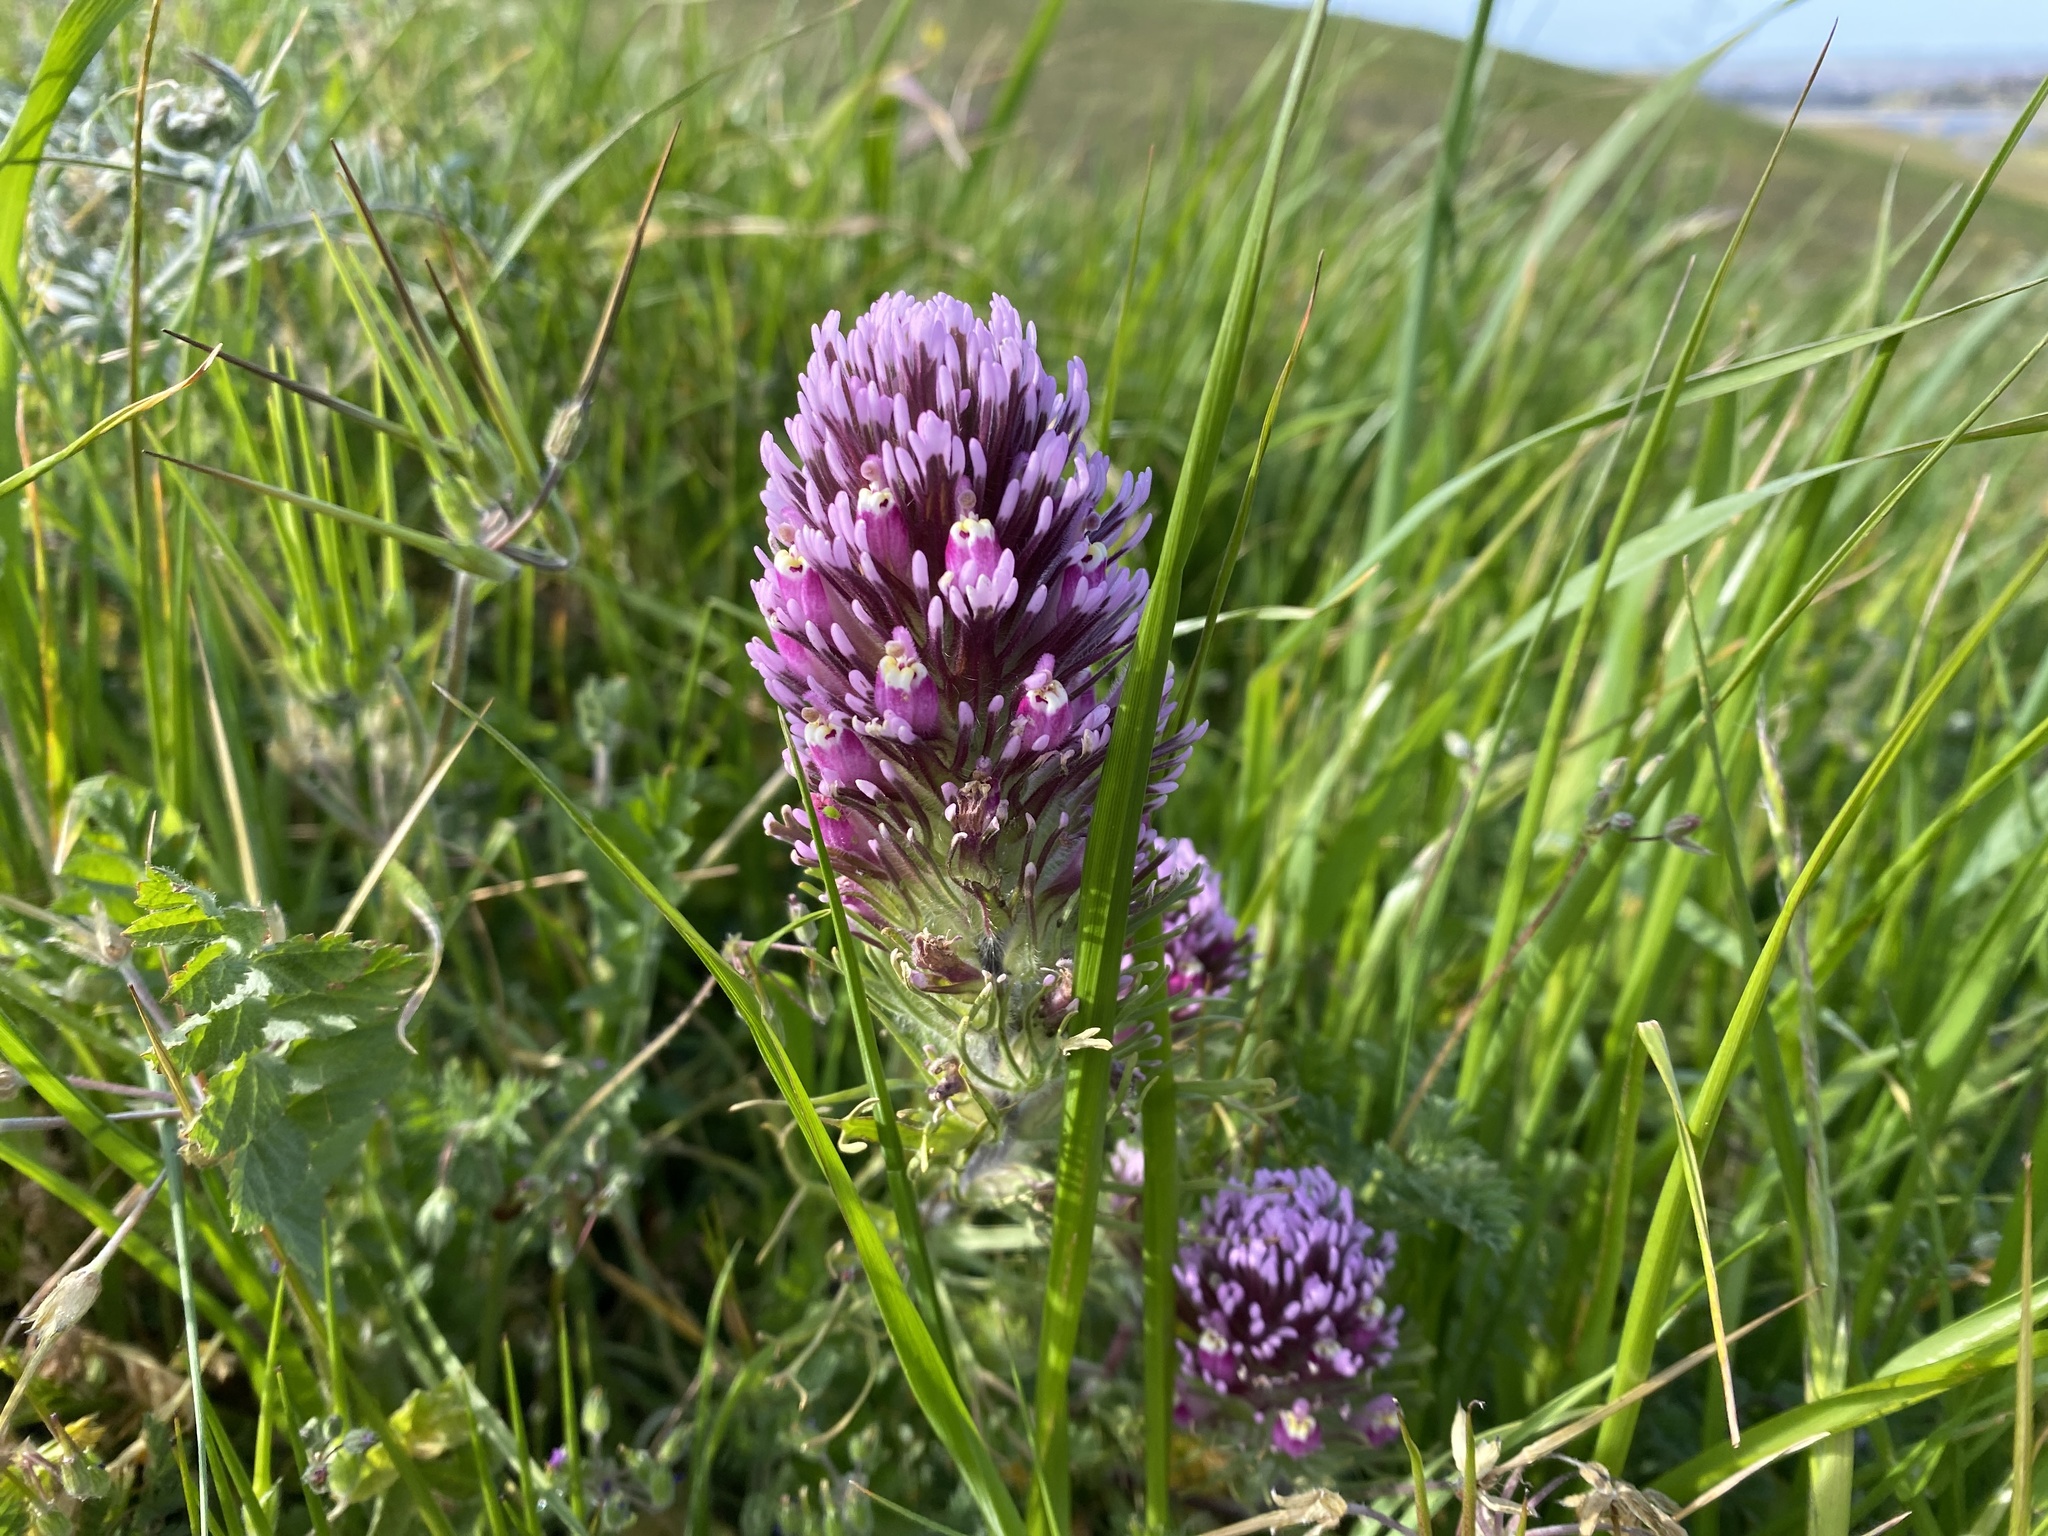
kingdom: Plantae
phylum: Tracheophyta
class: Magnoliopsida
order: Lamiales
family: Orobanchaceae
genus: Castilleja
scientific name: Castilleja exserta
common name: Purple owl-clover
